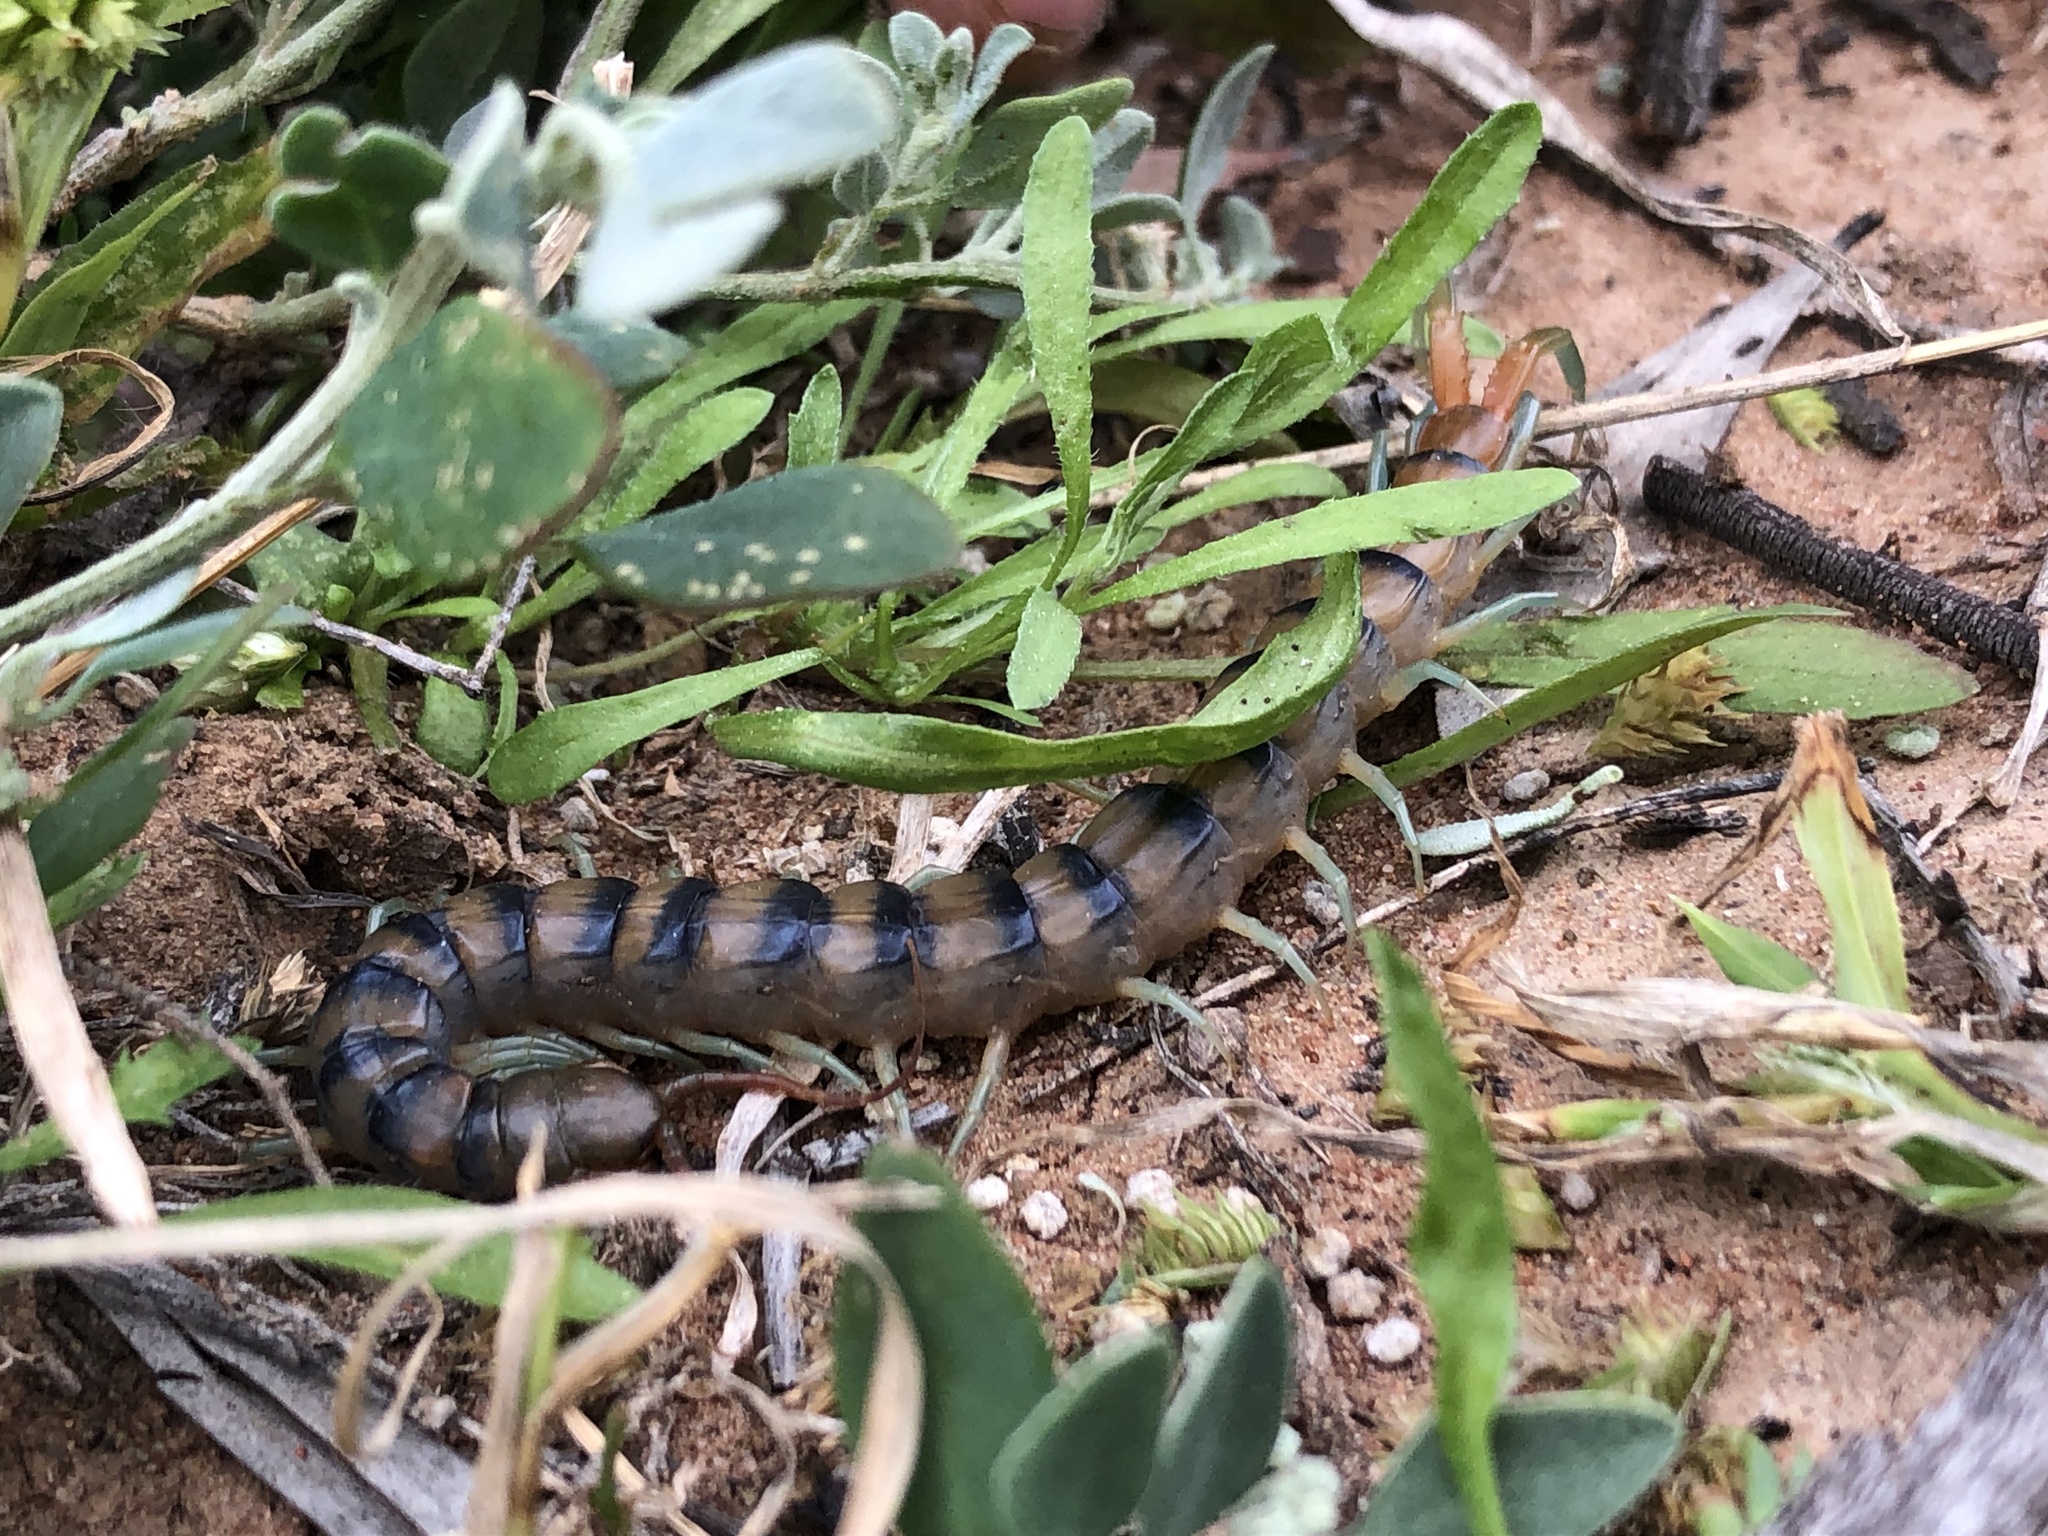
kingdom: Animalia
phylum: Arthropoda
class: Chilopoda
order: Scolopendromorpha
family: Scolopendridae
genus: Scolopendra
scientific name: Scolopendra morsitans
